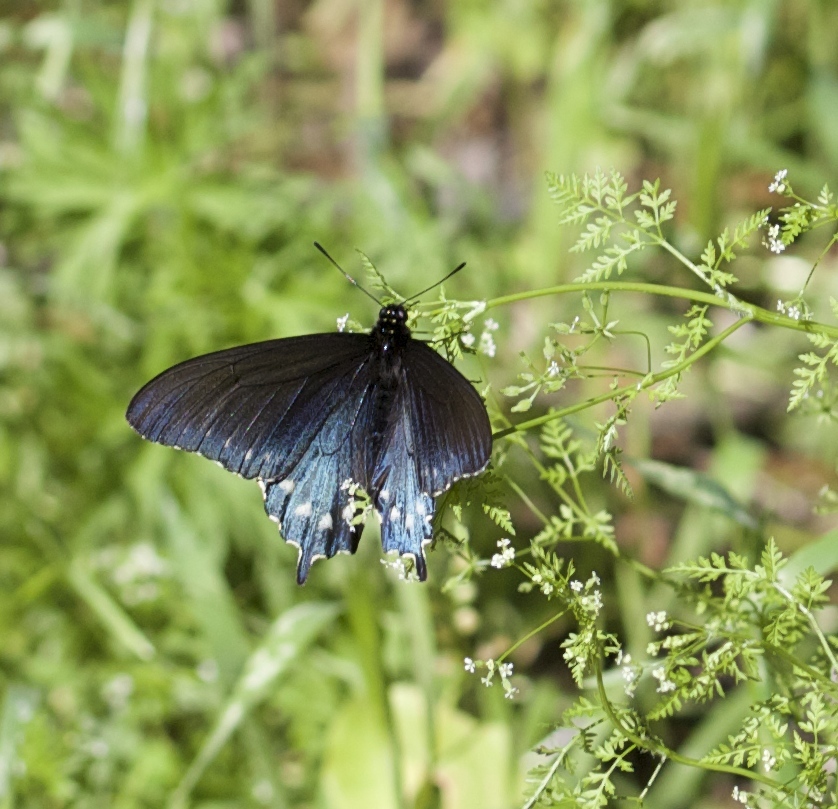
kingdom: Animalia
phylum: Arthropoda
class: Insecta
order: Lepidoptera
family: Papilionidae
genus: Battus
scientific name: Battus philenor
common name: Pipevine swallowtail
